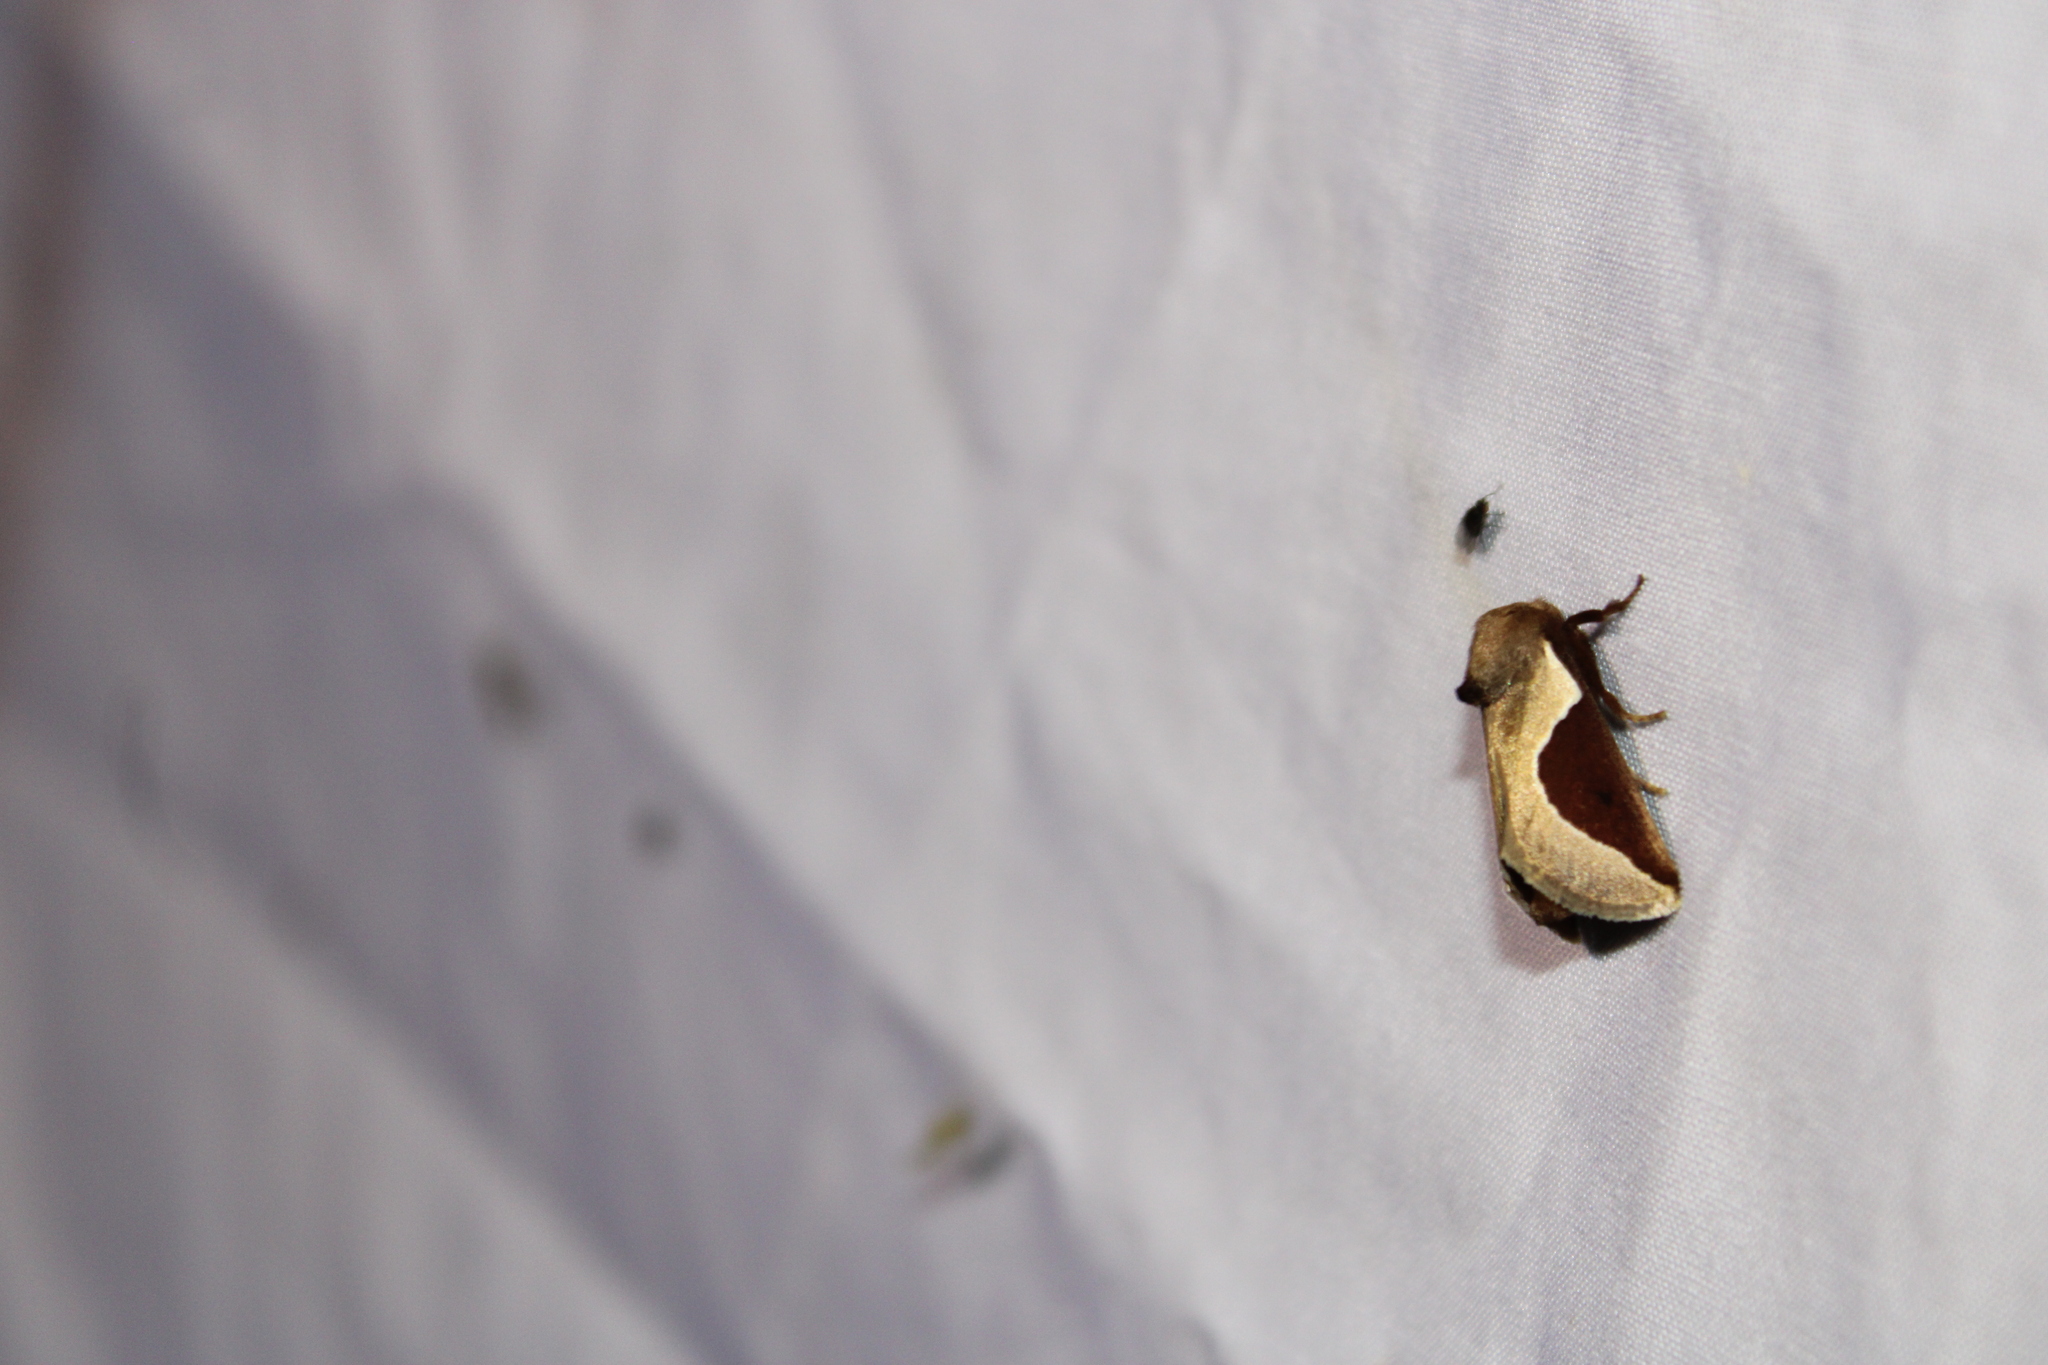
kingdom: Animalia
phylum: Arthropoda
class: Insecta
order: Lepidoptera
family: Limacodidae
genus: Prolimacodes
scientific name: Prolimacodes badia
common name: Skiff moth
